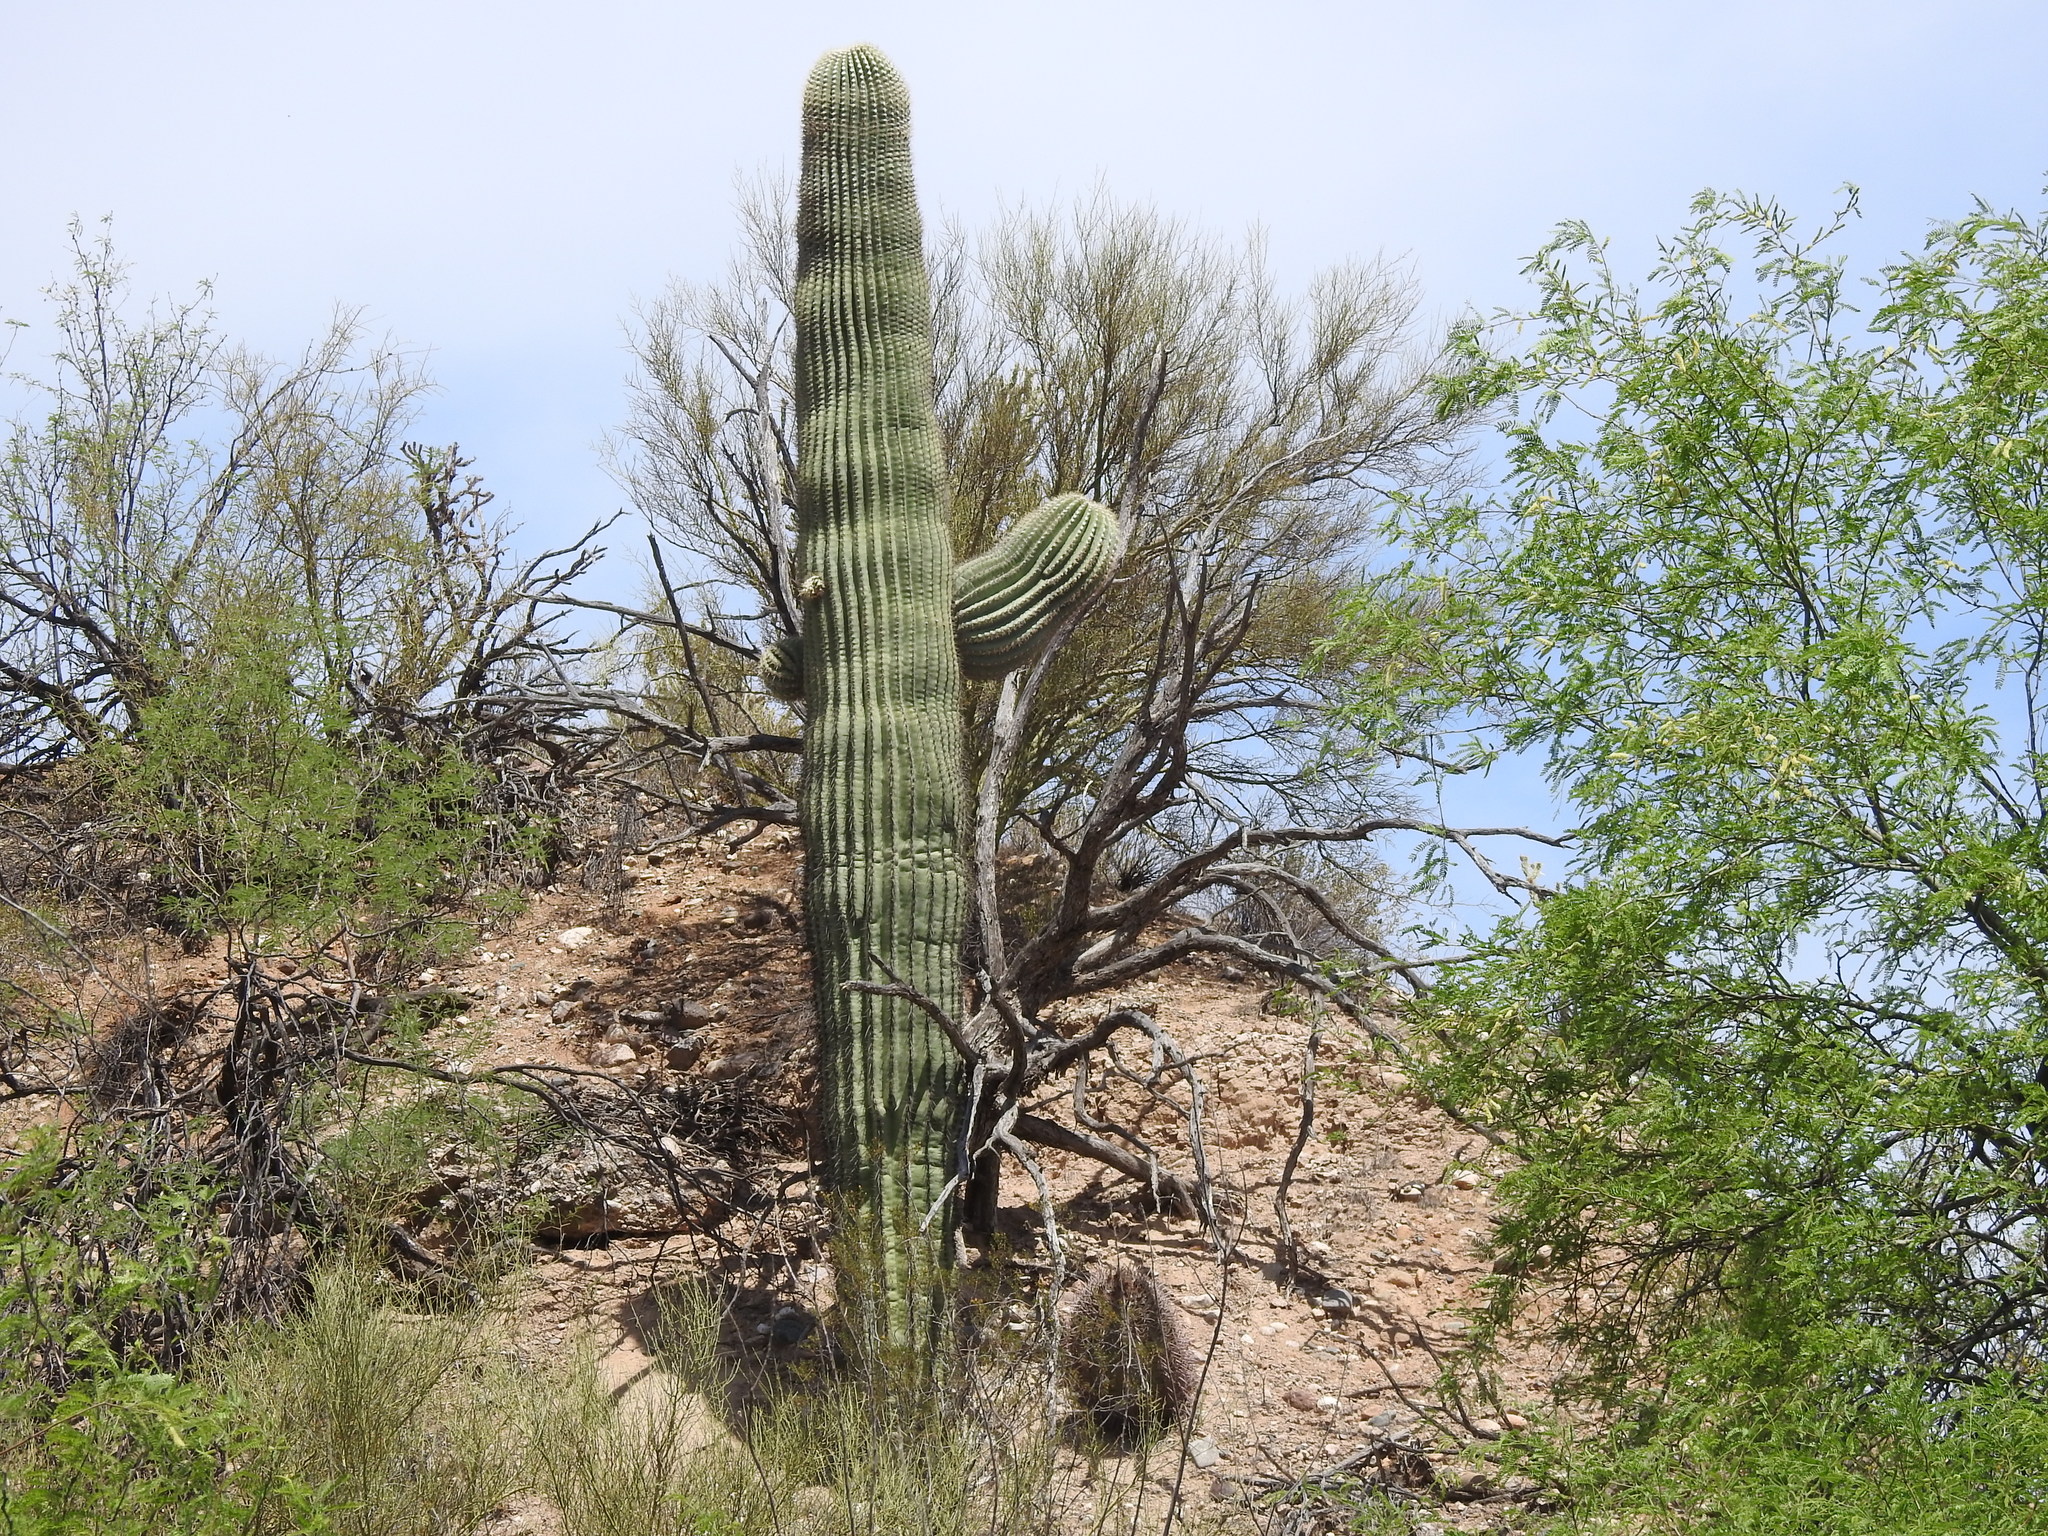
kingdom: Plantae
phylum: Tracheophyta
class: Magnoliopsida
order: Caryophyllales
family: Cactaceae
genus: Carnegiea
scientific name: Carnegiea gigantea
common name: Saguaro
